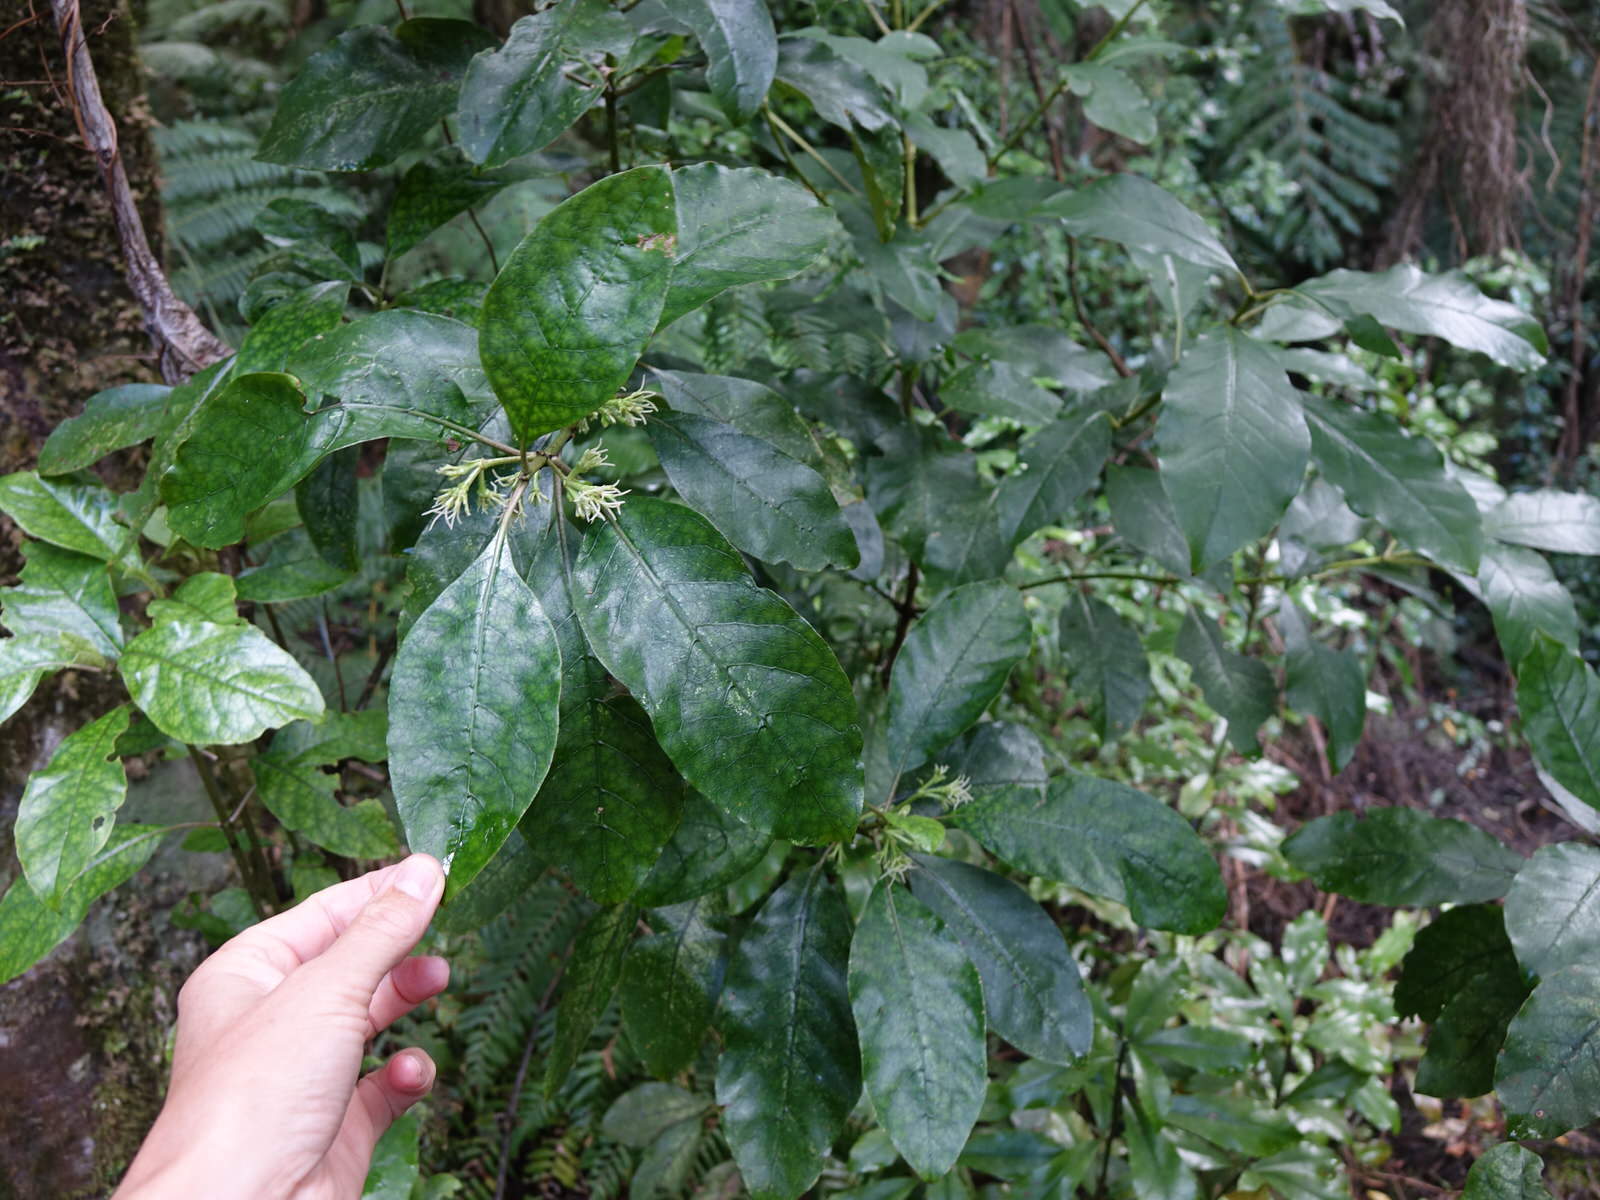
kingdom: Plantae
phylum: Tracheophyta
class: Magnoliopsida
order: Gentianales
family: Rubiaceae
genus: Coprosma
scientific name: Coprosma autumnalis
